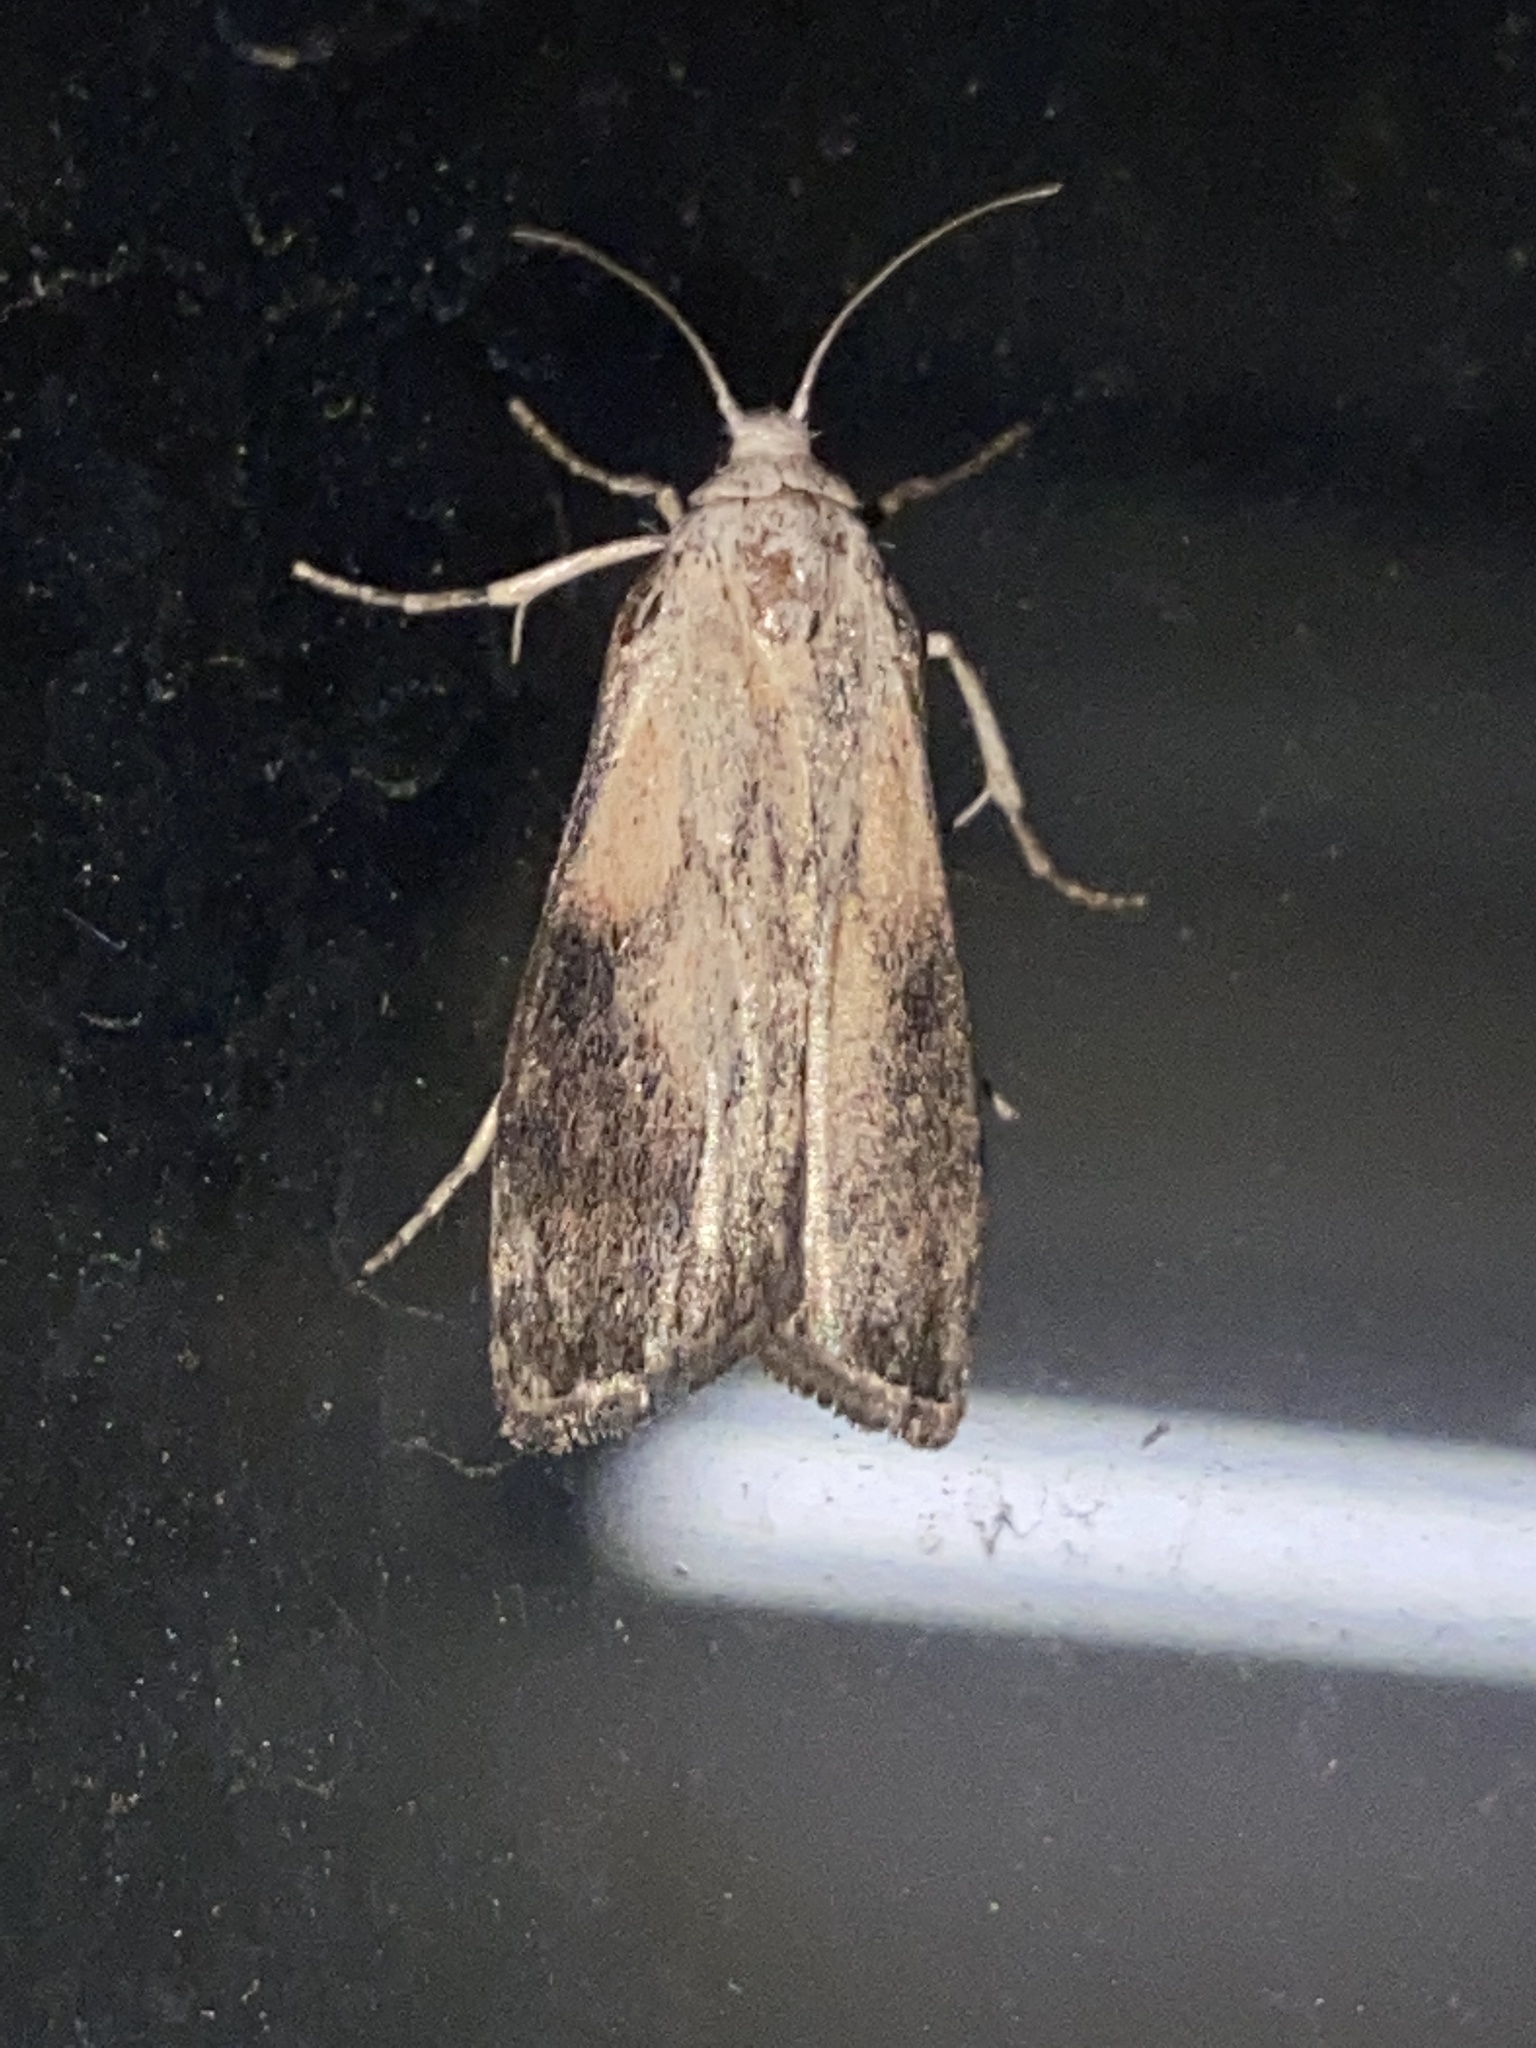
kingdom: Animalia
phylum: Arthropoda
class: Insecta
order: Lepidoptera
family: Pyralidae
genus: Aphomia
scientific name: Aphomia sociella
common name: Bee moth
